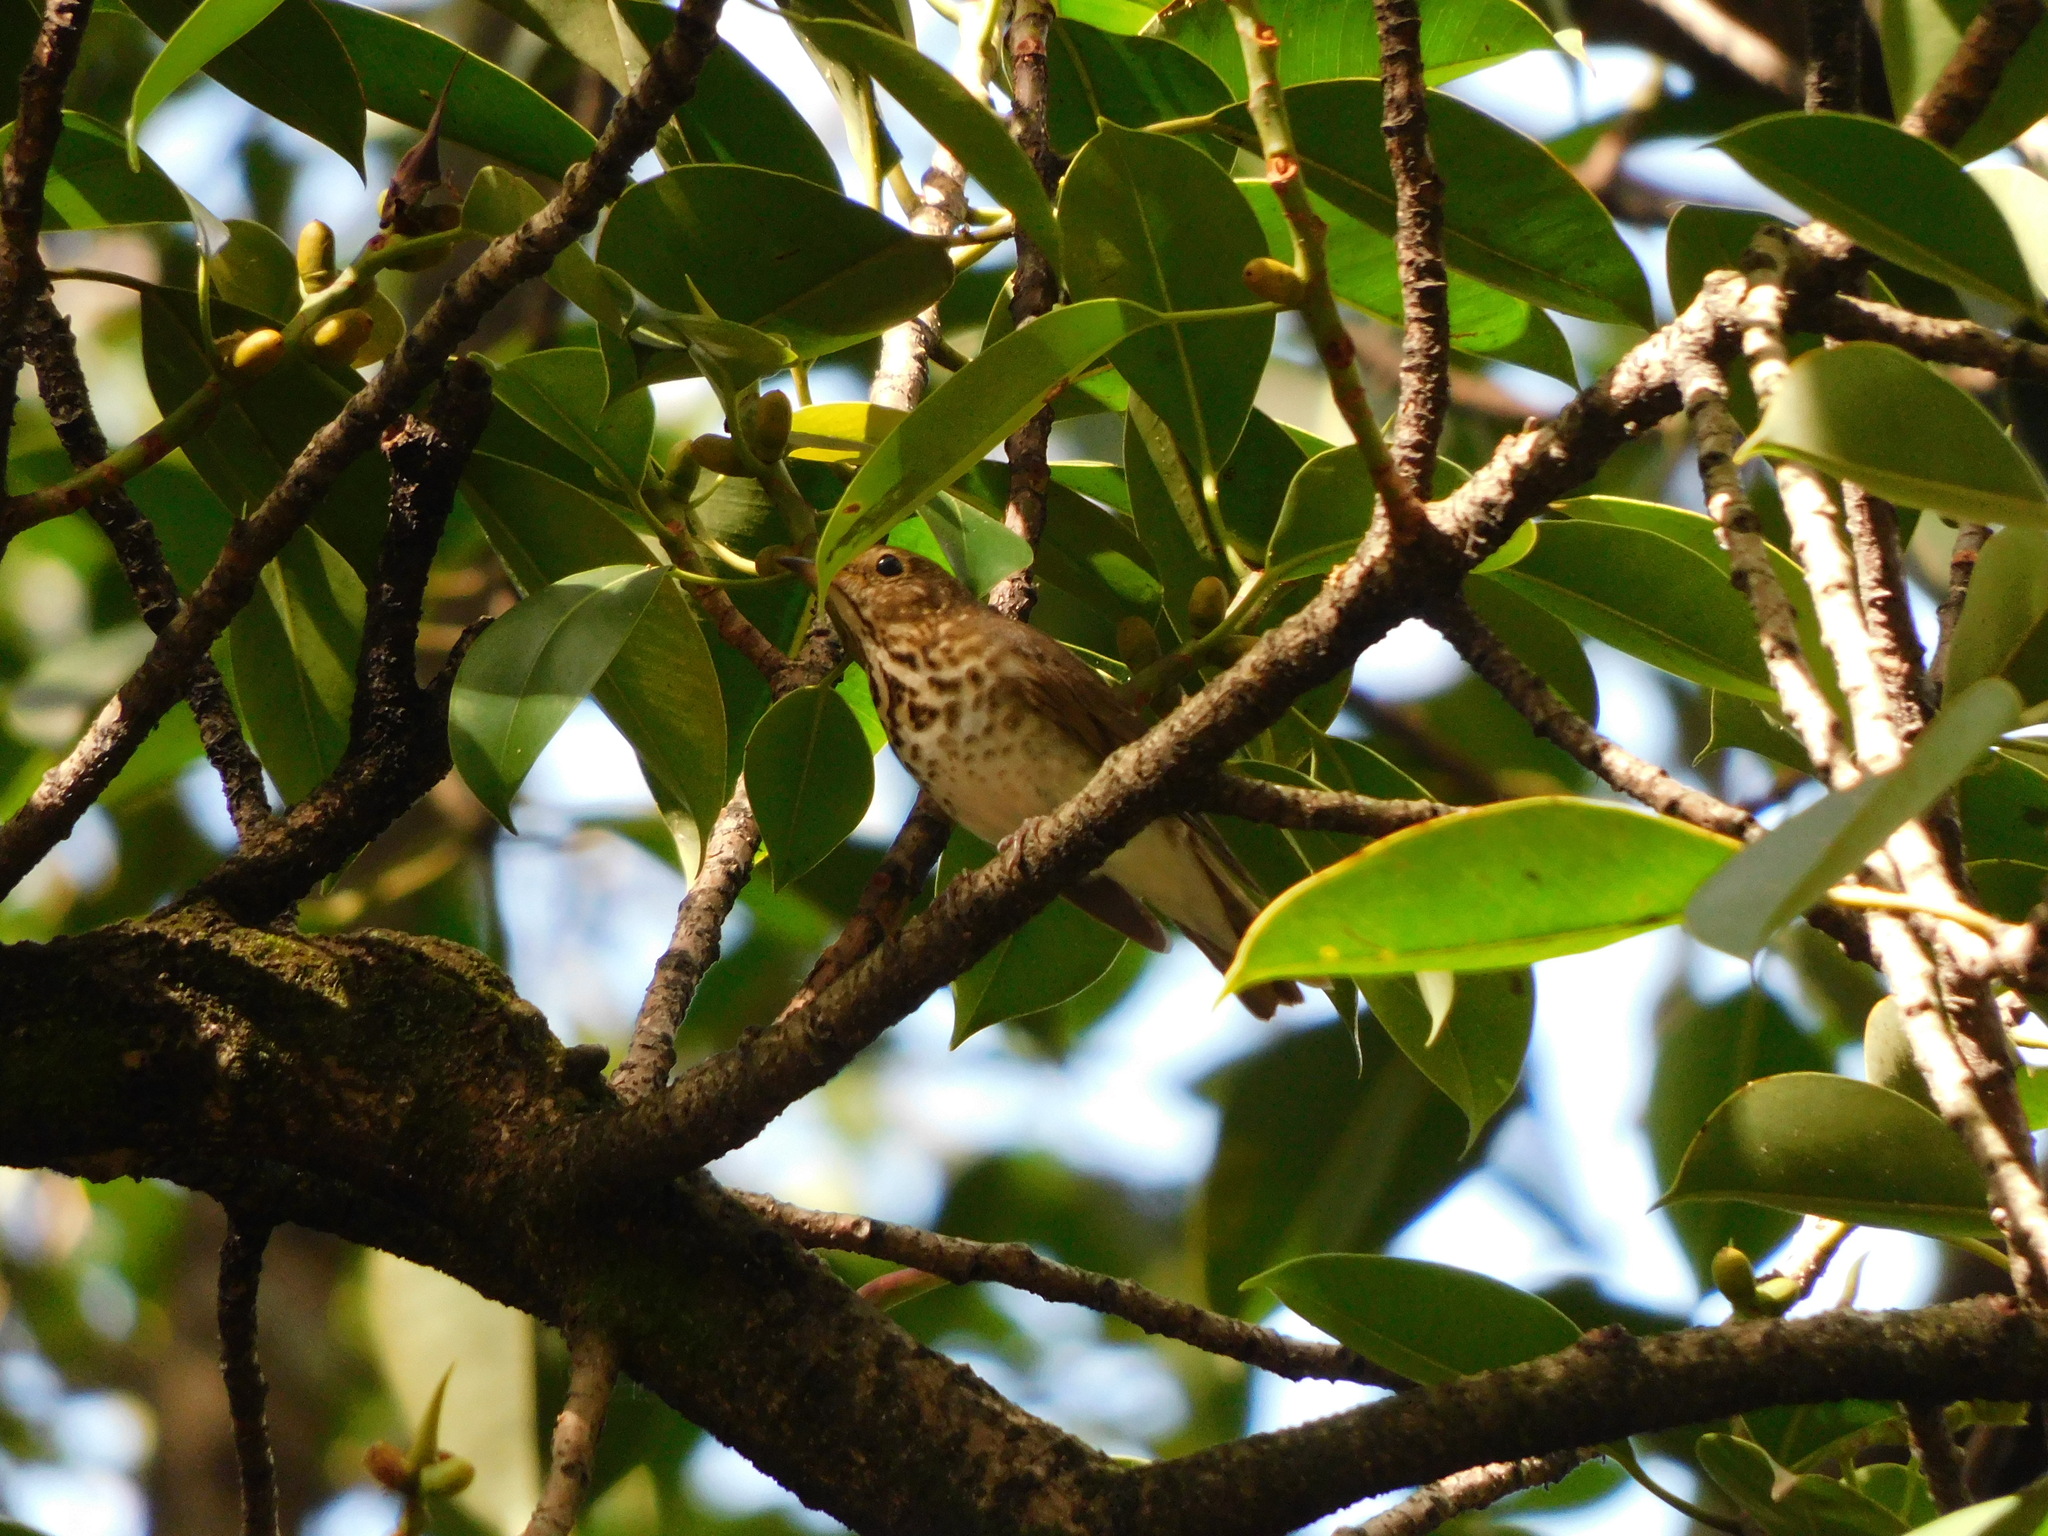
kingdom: Animalia
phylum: Chordata
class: Aves
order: Passeriformes
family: Turdidae
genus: Catharus
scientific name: Catharus ustulatus
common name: Swainson's thrush
